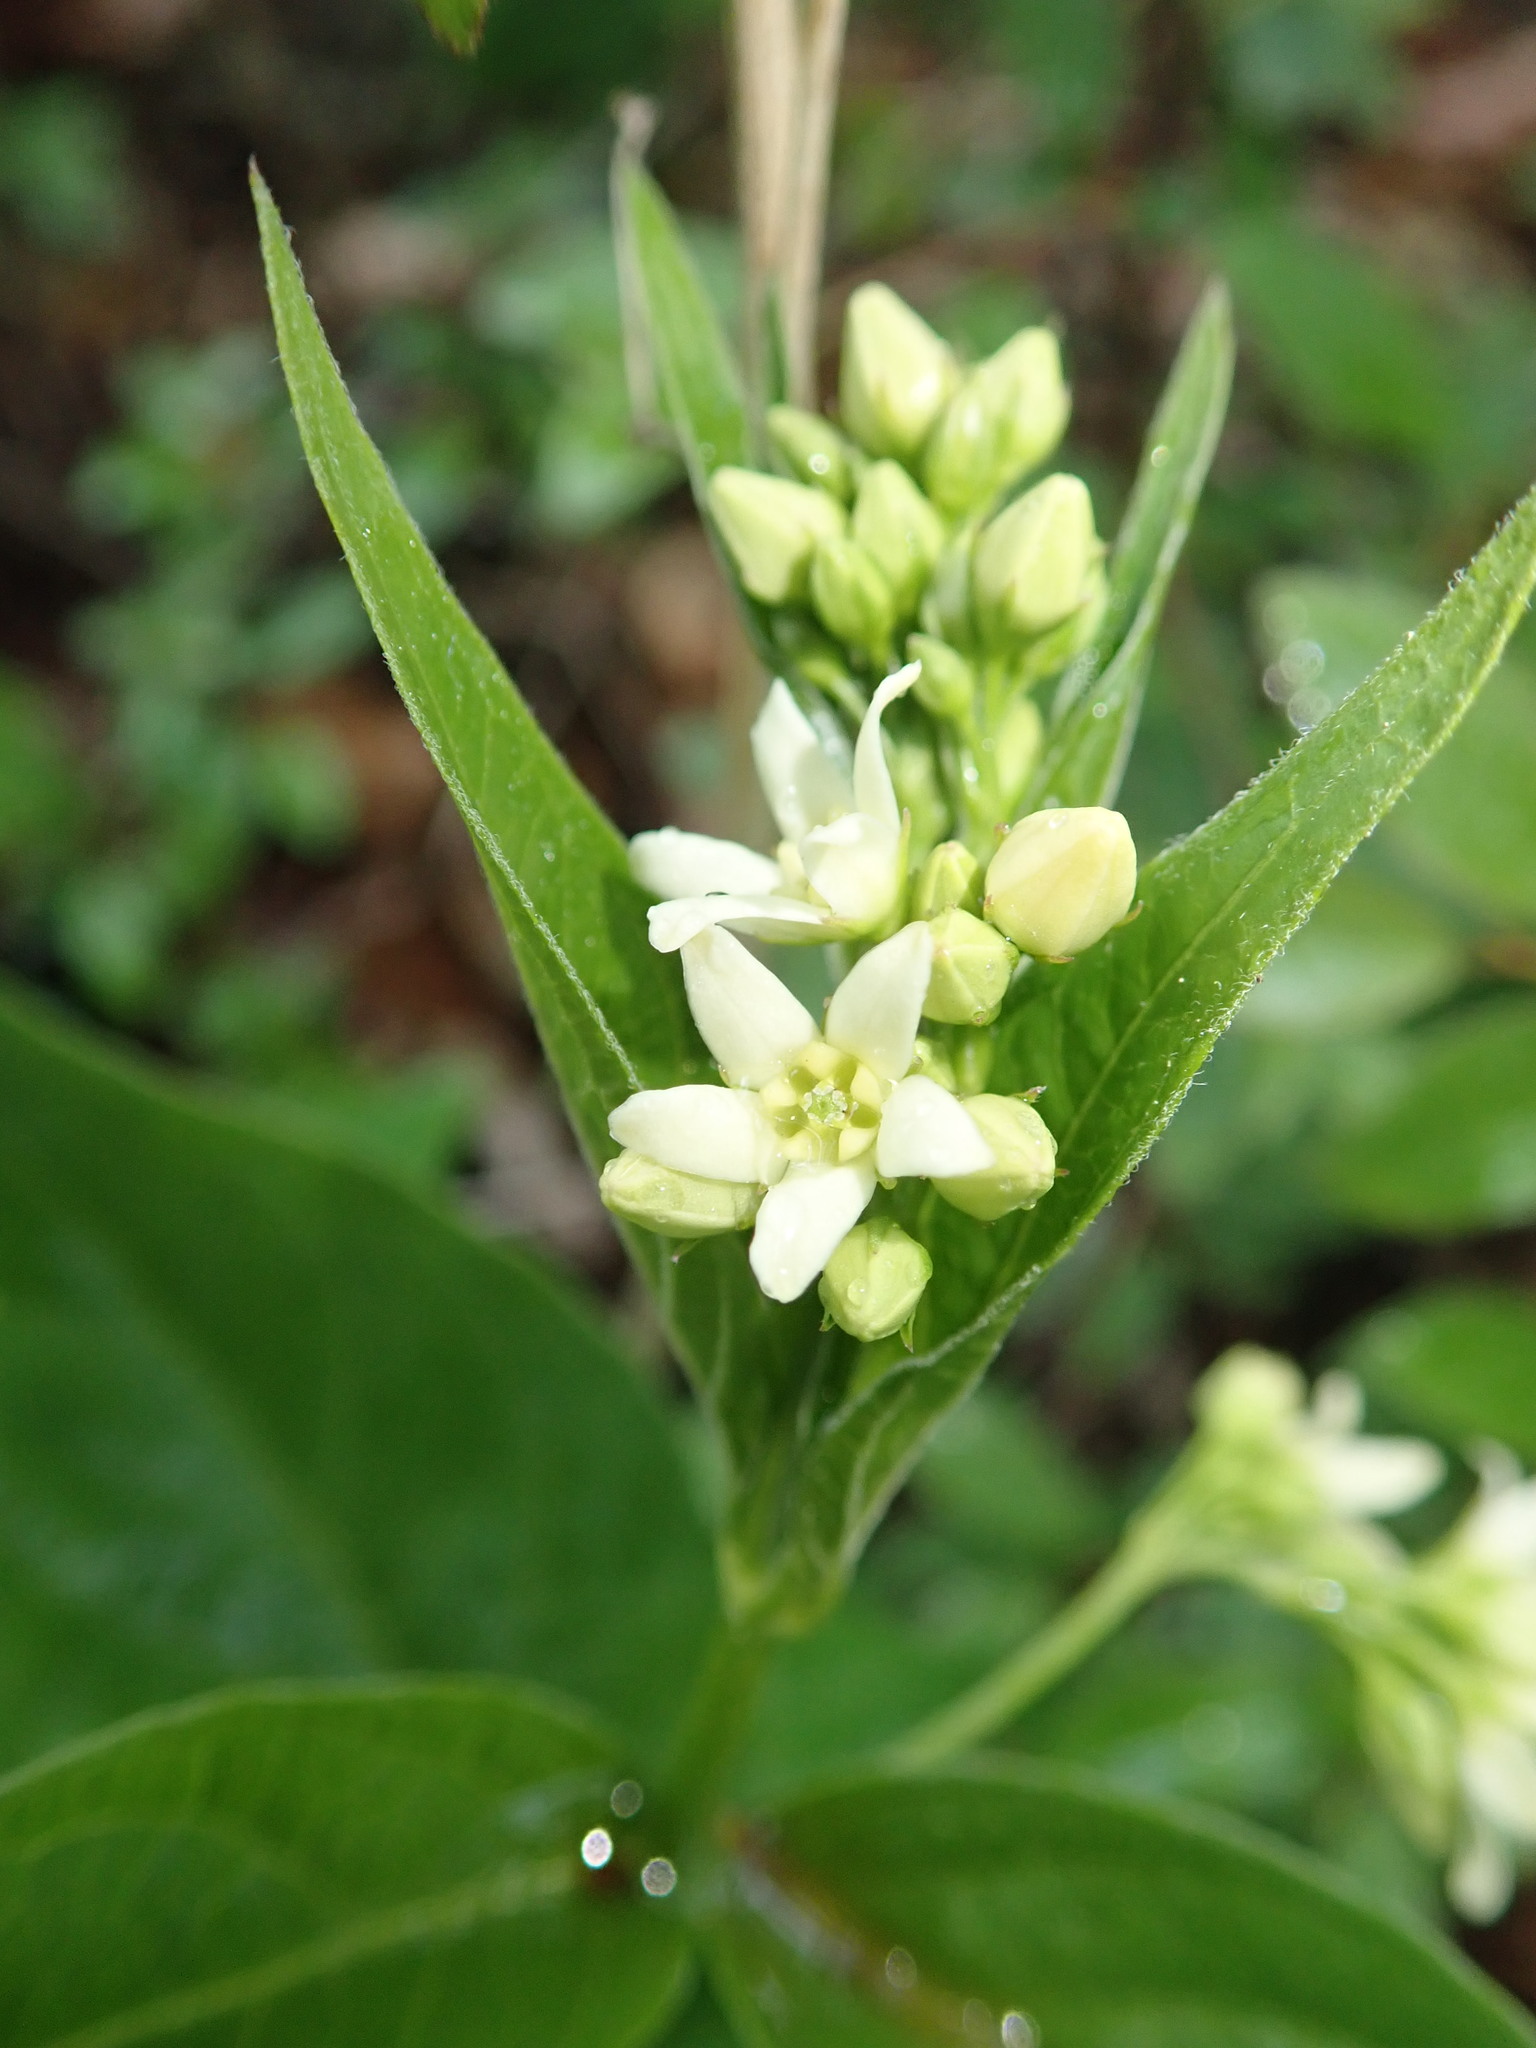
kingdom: Plantae
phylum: Tracheophyta
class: Magnoliopsida
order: Gentianales
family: Apocynaceae
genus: Vincetoxicum
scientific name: Vincetoxicum hirundinaria
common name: White swallowwort
